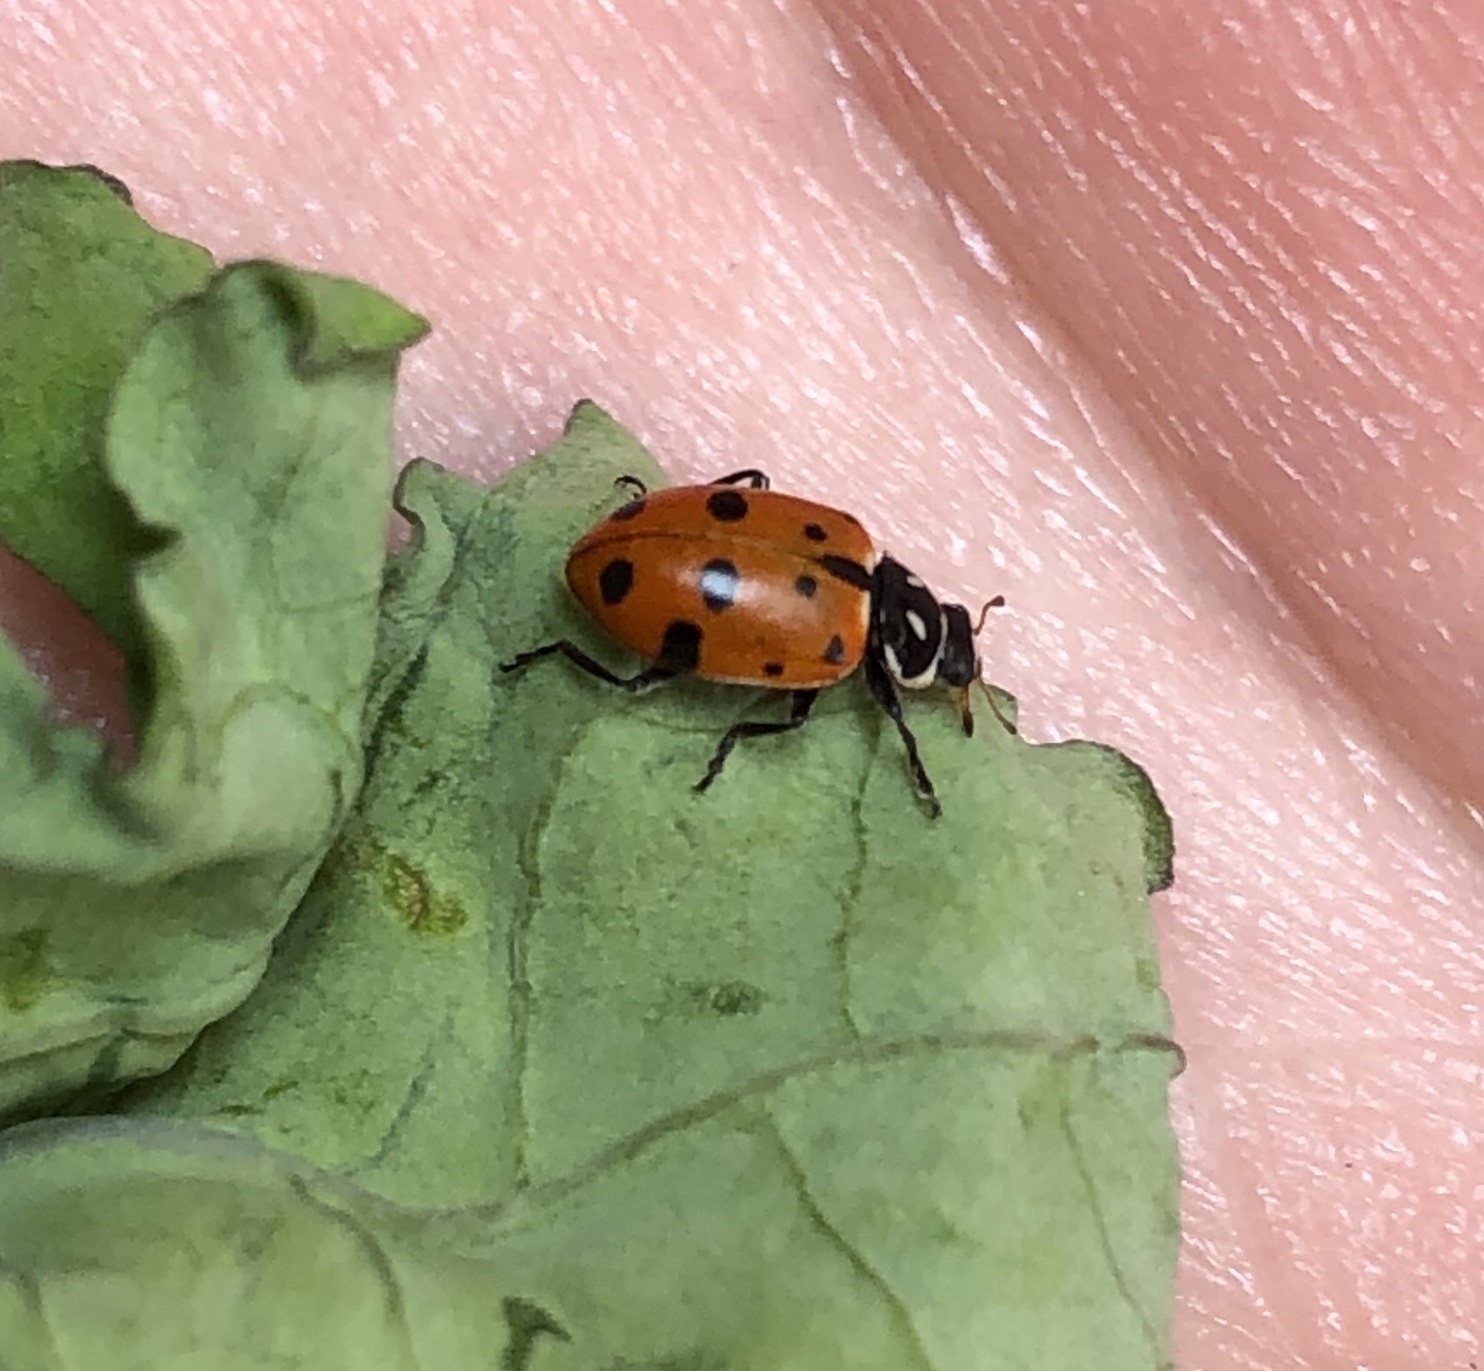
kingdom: Animalia
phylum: Arthropoda
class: Insecta
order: Coleoptera
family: Coccinellidae
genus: Hippodamia
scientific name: Hippodamia convergens
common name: Convergent lady beetle
